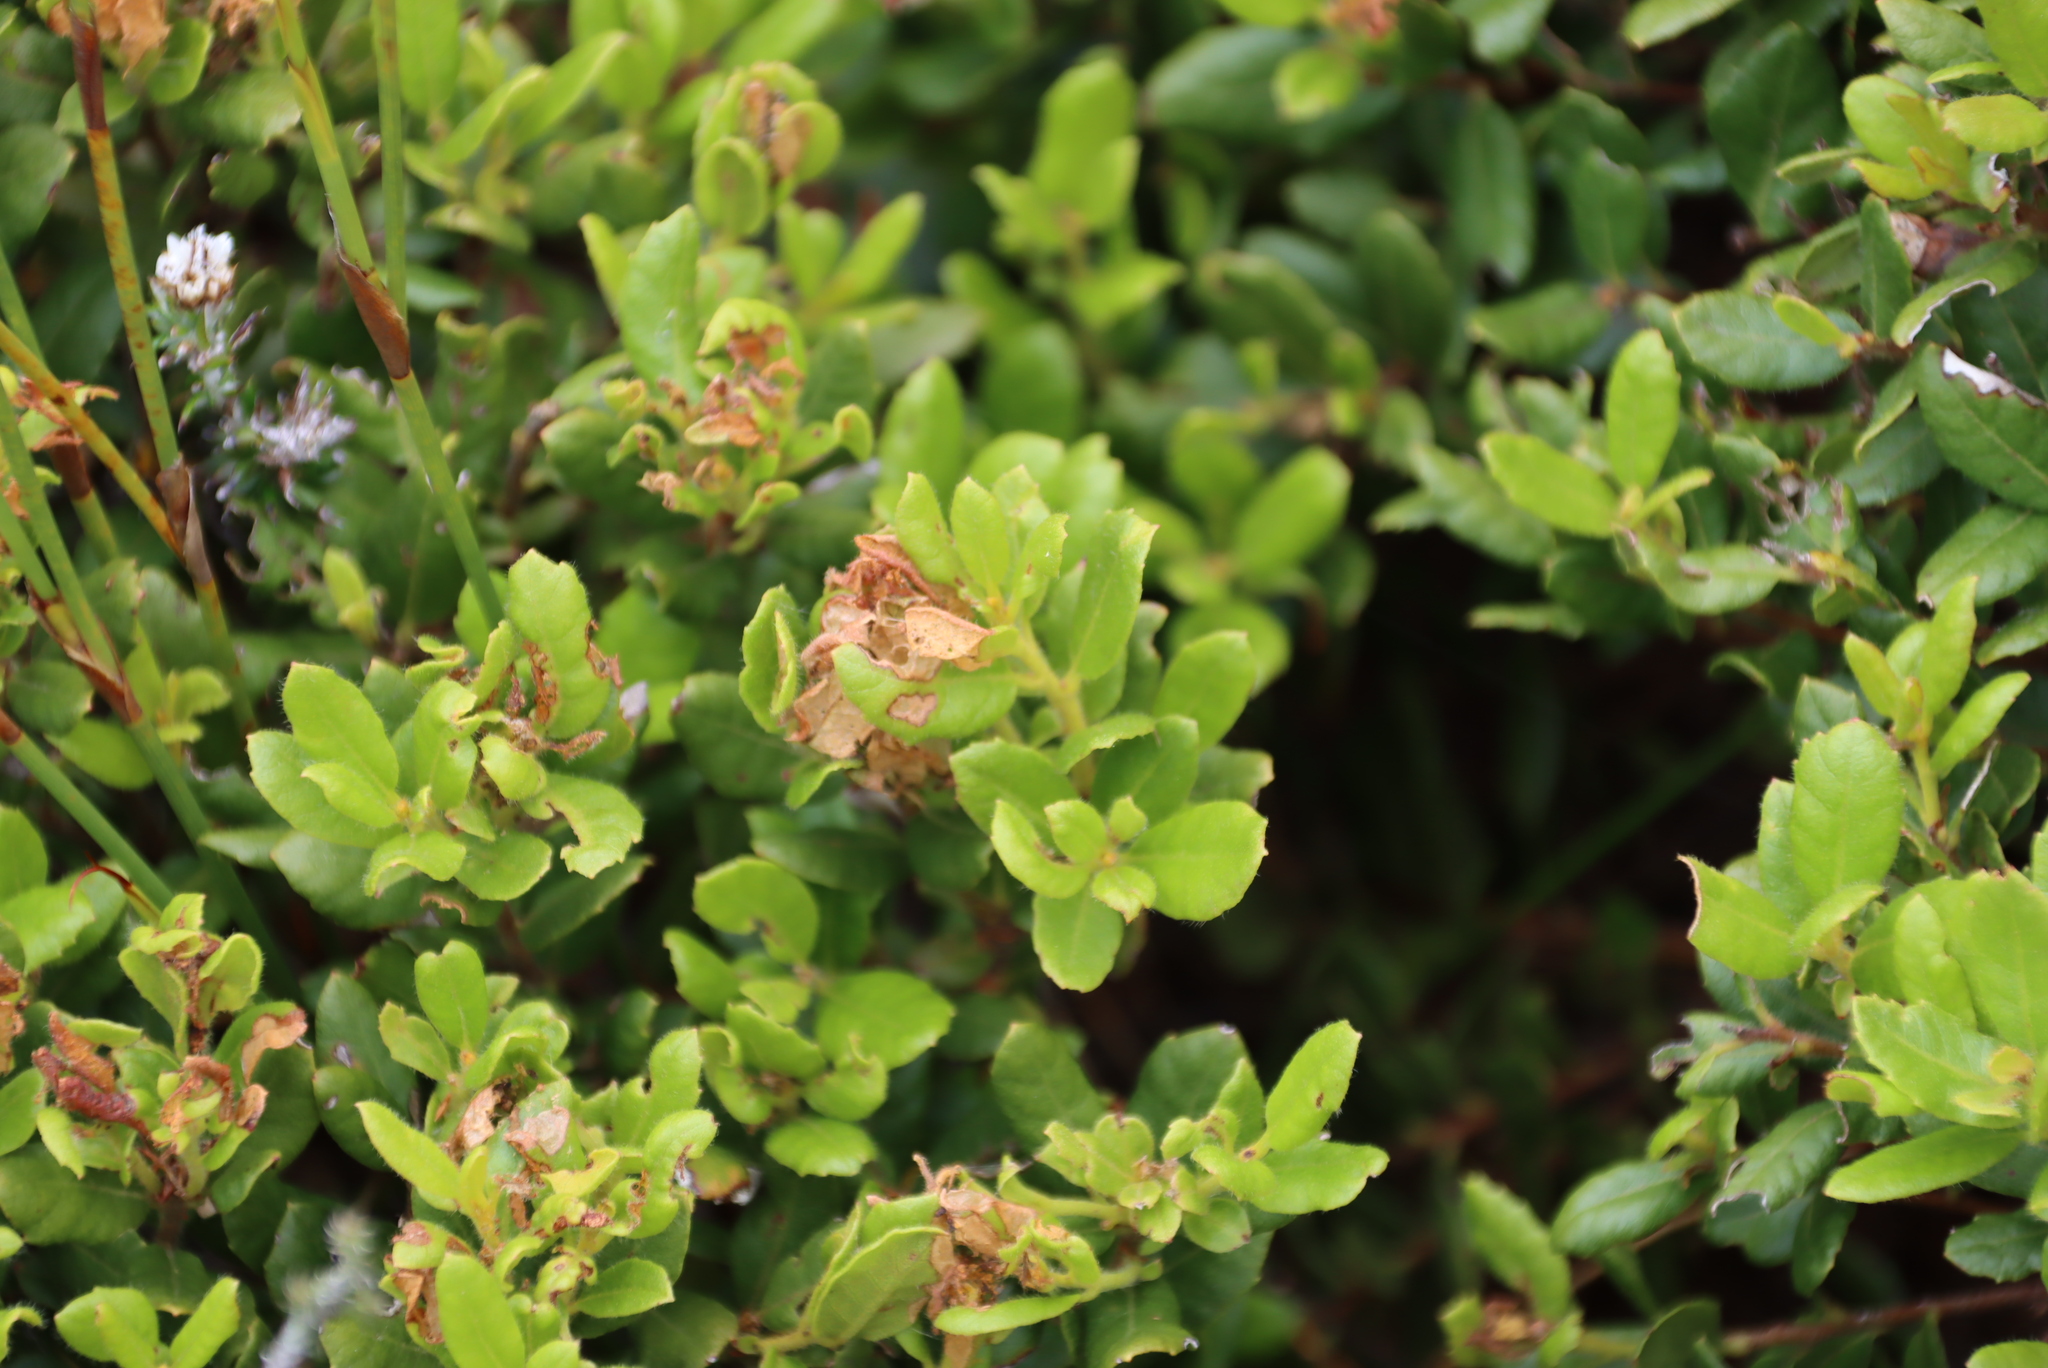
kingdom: Plantae
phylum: Tracheophyta
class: Magnoliopsida
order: Fagales
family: Myricaceae
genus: Morella
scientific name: Morella kraussiana
